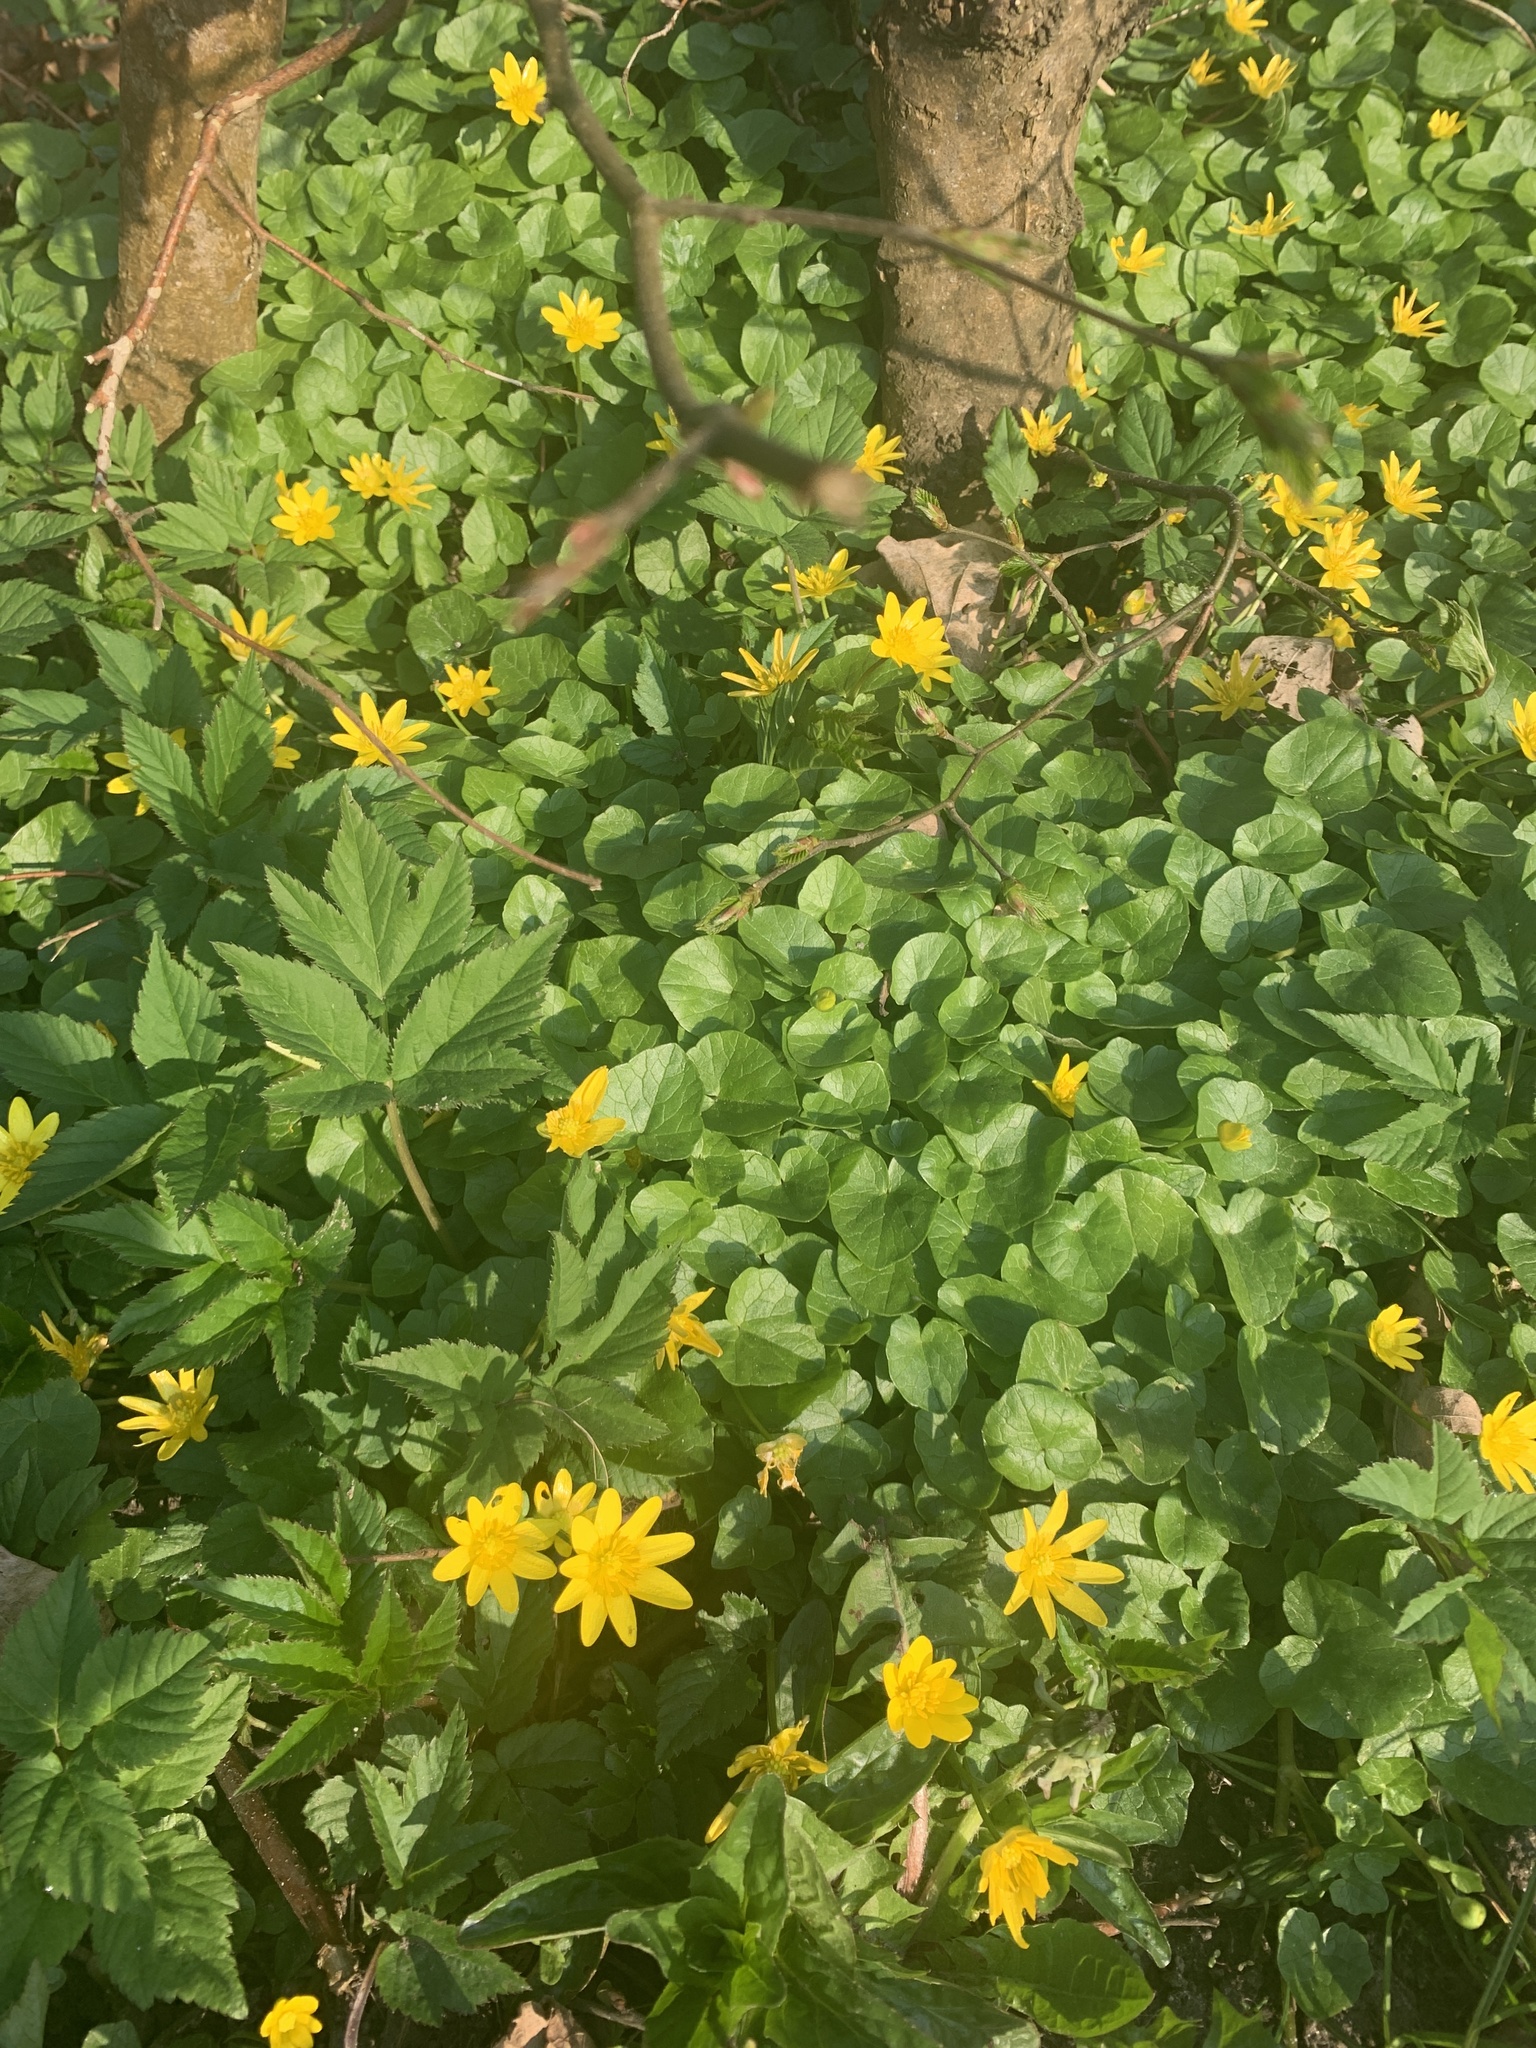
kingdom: Plantae
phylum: Tracheophyta
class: Magnoliopsida
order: Ranunculales
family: Ranunculaceae
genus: Ficaria
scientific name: Ficaria verna
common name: Lesser celandine
